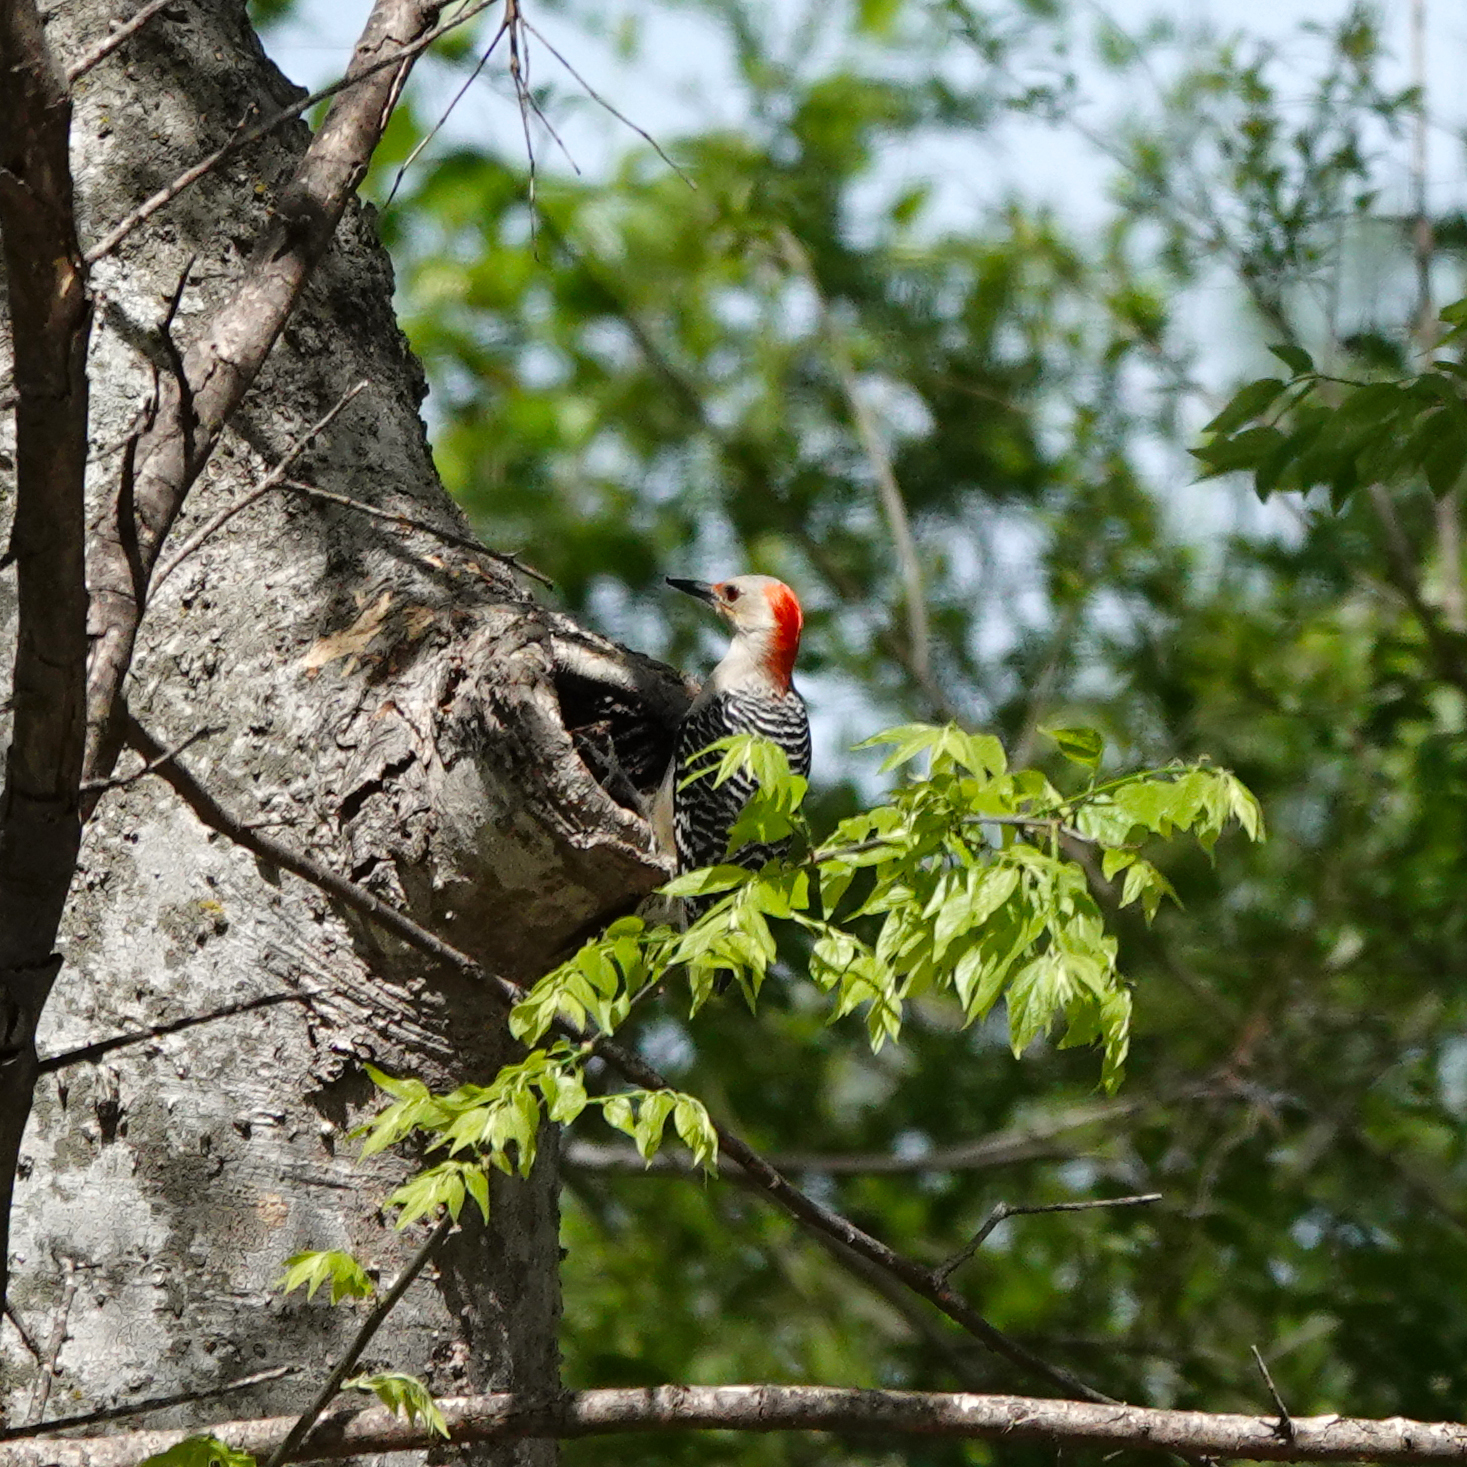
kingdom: Animalia
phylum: Chordata
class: Aves
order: Piciformes
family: Picidae
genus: Melanerpes
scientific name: Melanerpes carolinus
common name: Red-bellied woodpecker
